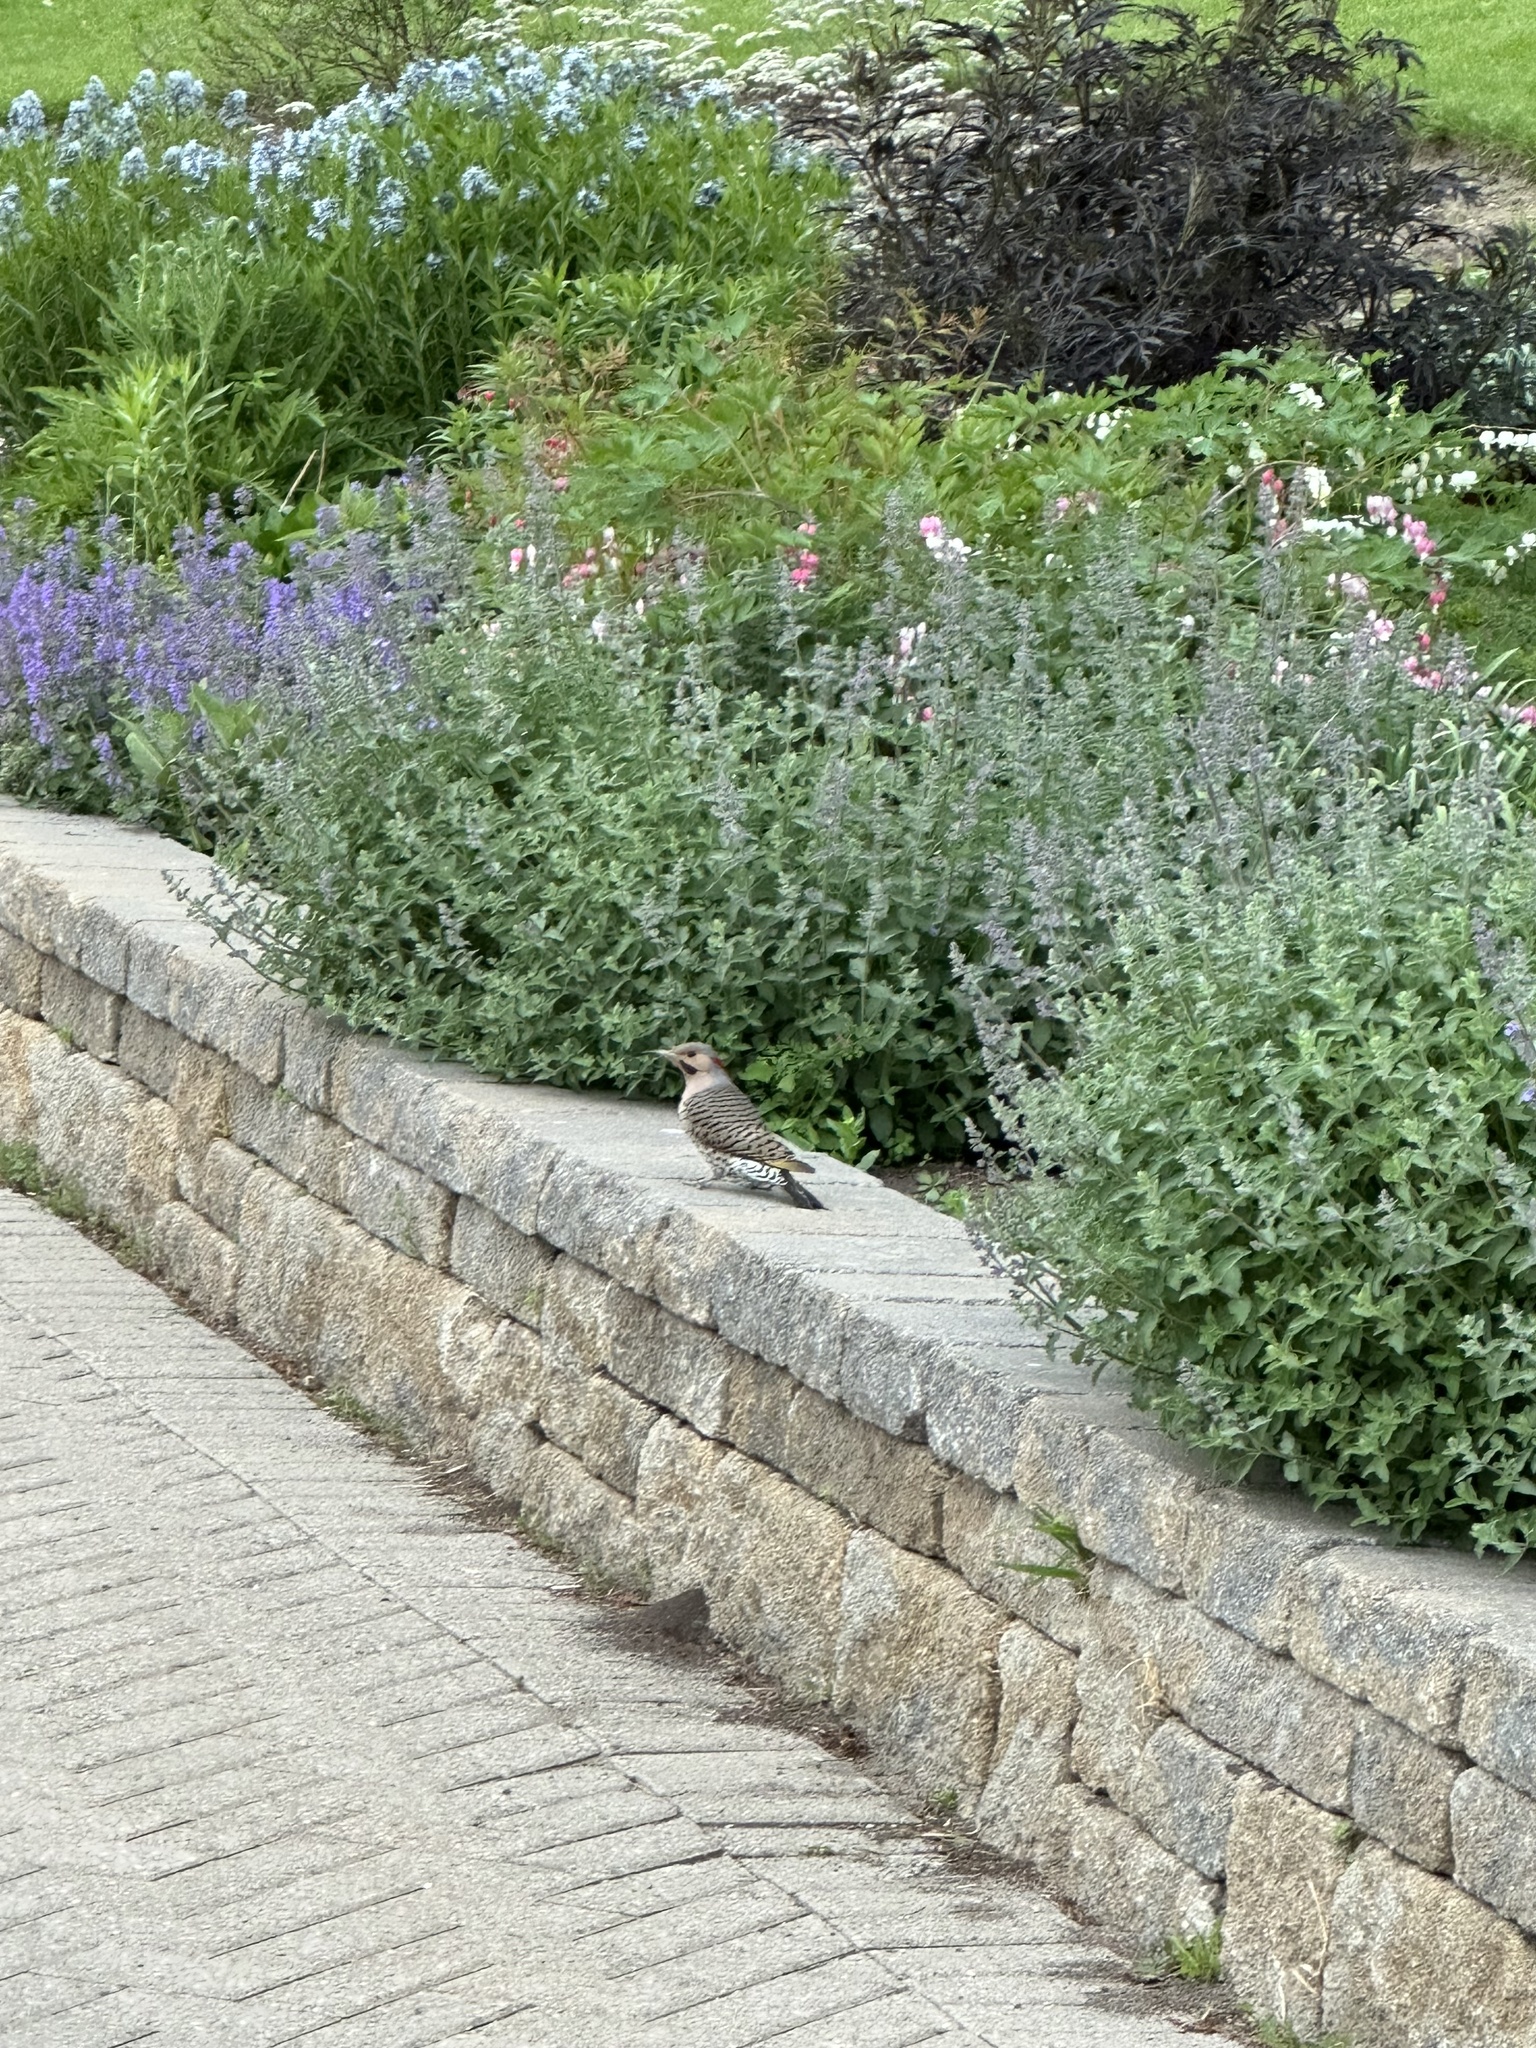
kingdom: Animalia
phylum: Chordata
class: Aves
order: Piciformes
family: Picidae
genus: Colaptes
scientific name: Colaptes auratus
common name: Northern flicker
